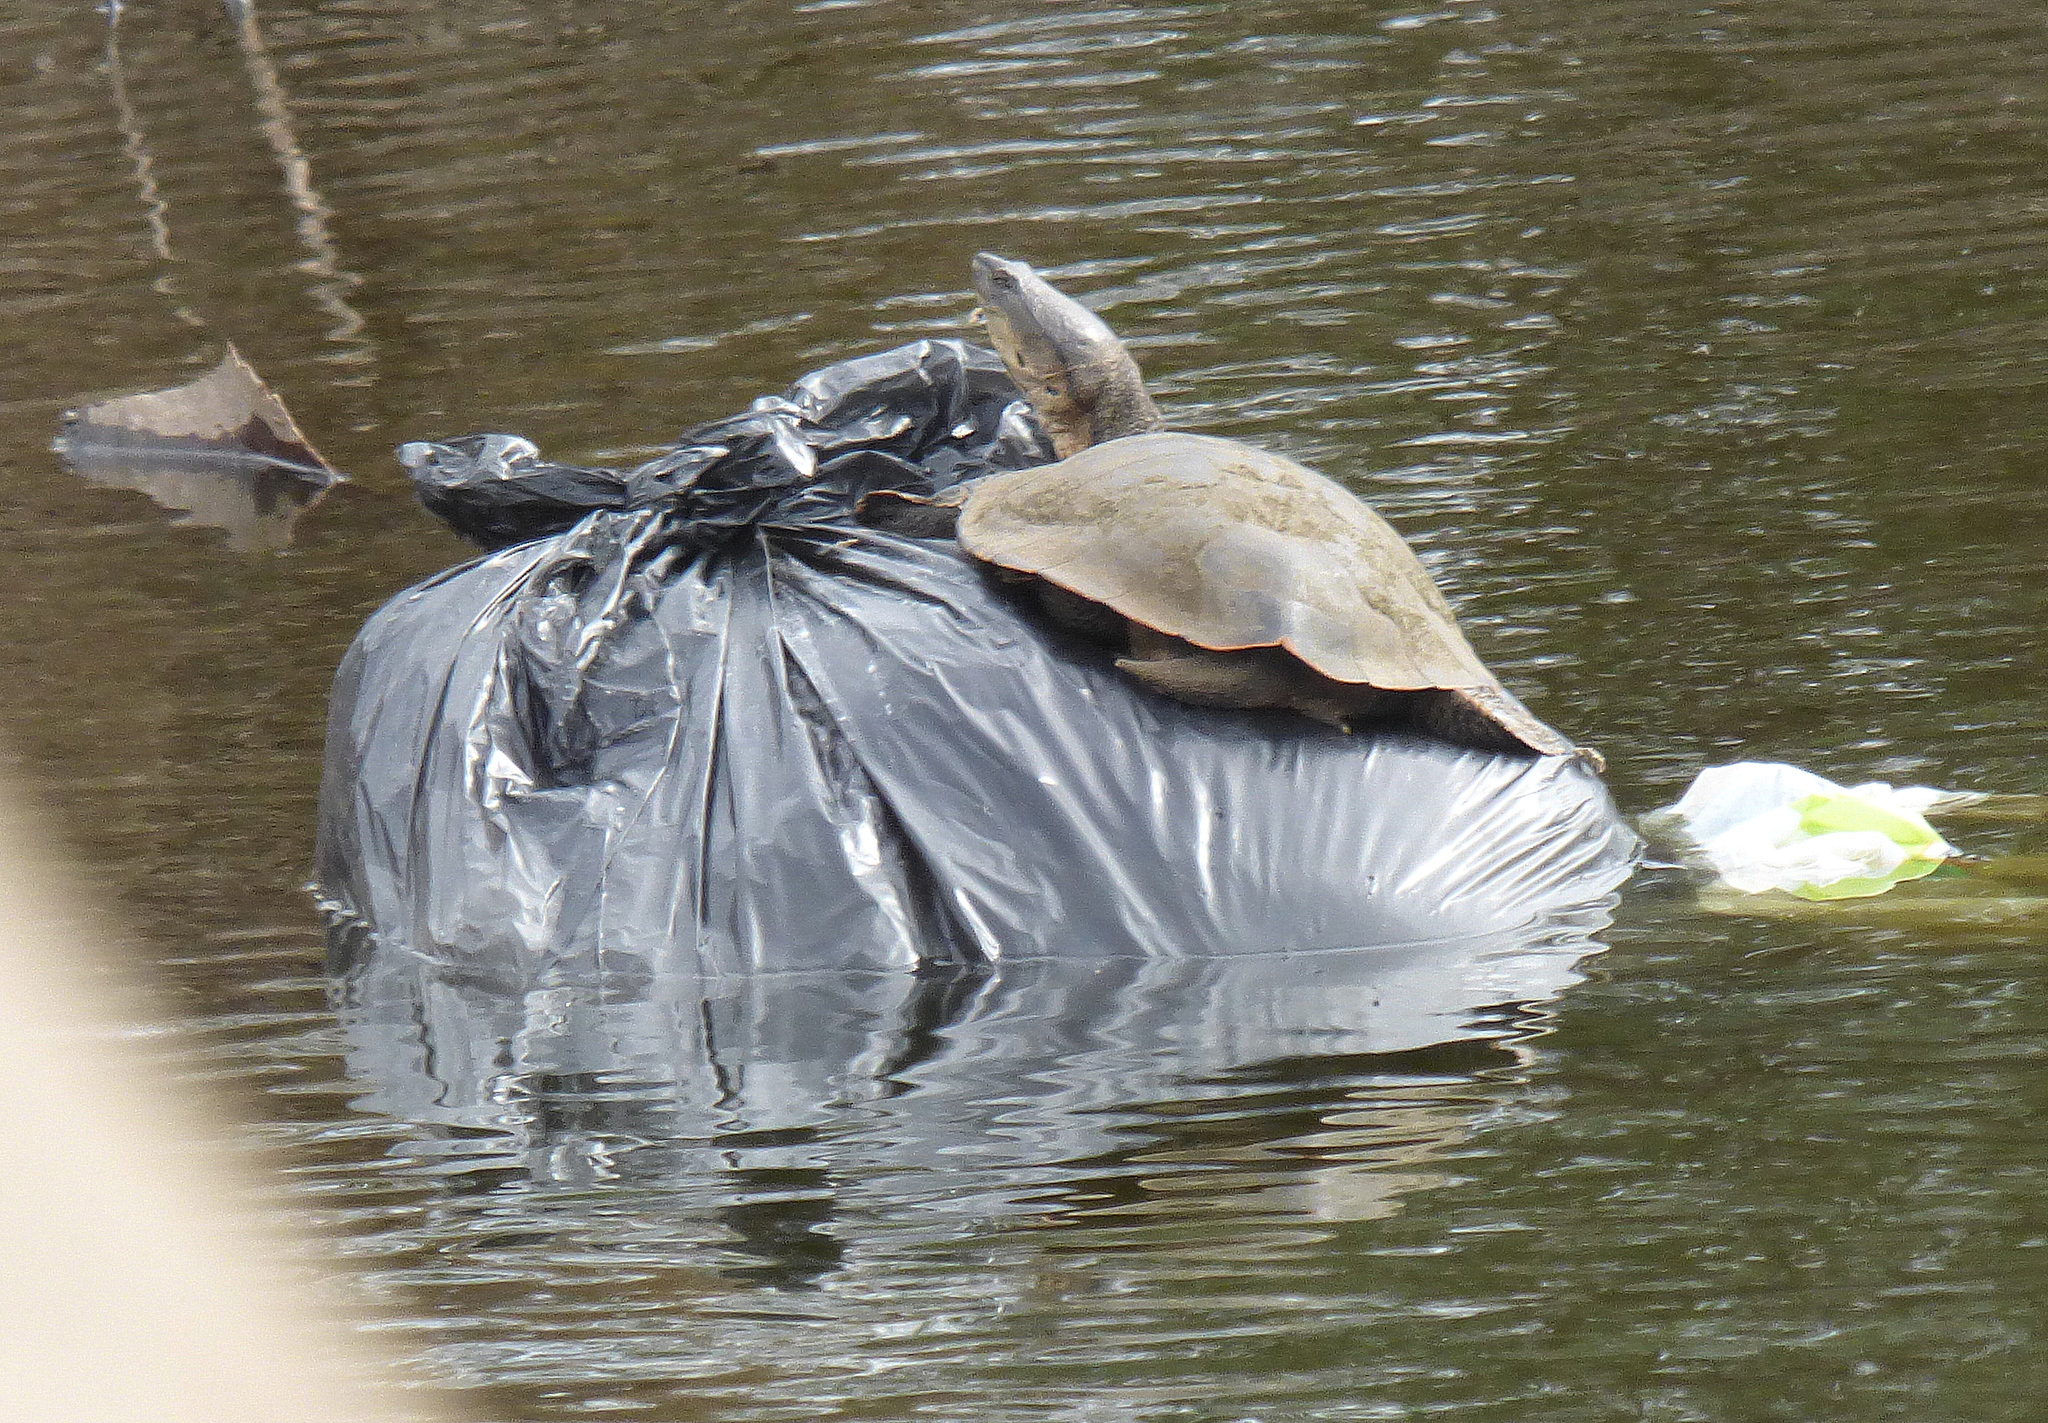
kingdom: Animalia
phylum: Chordata
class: Testudines
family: Chelidae
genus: Phrynops
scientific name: Phrynops hilarii
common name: Side-necked turtle of saint hillaire
